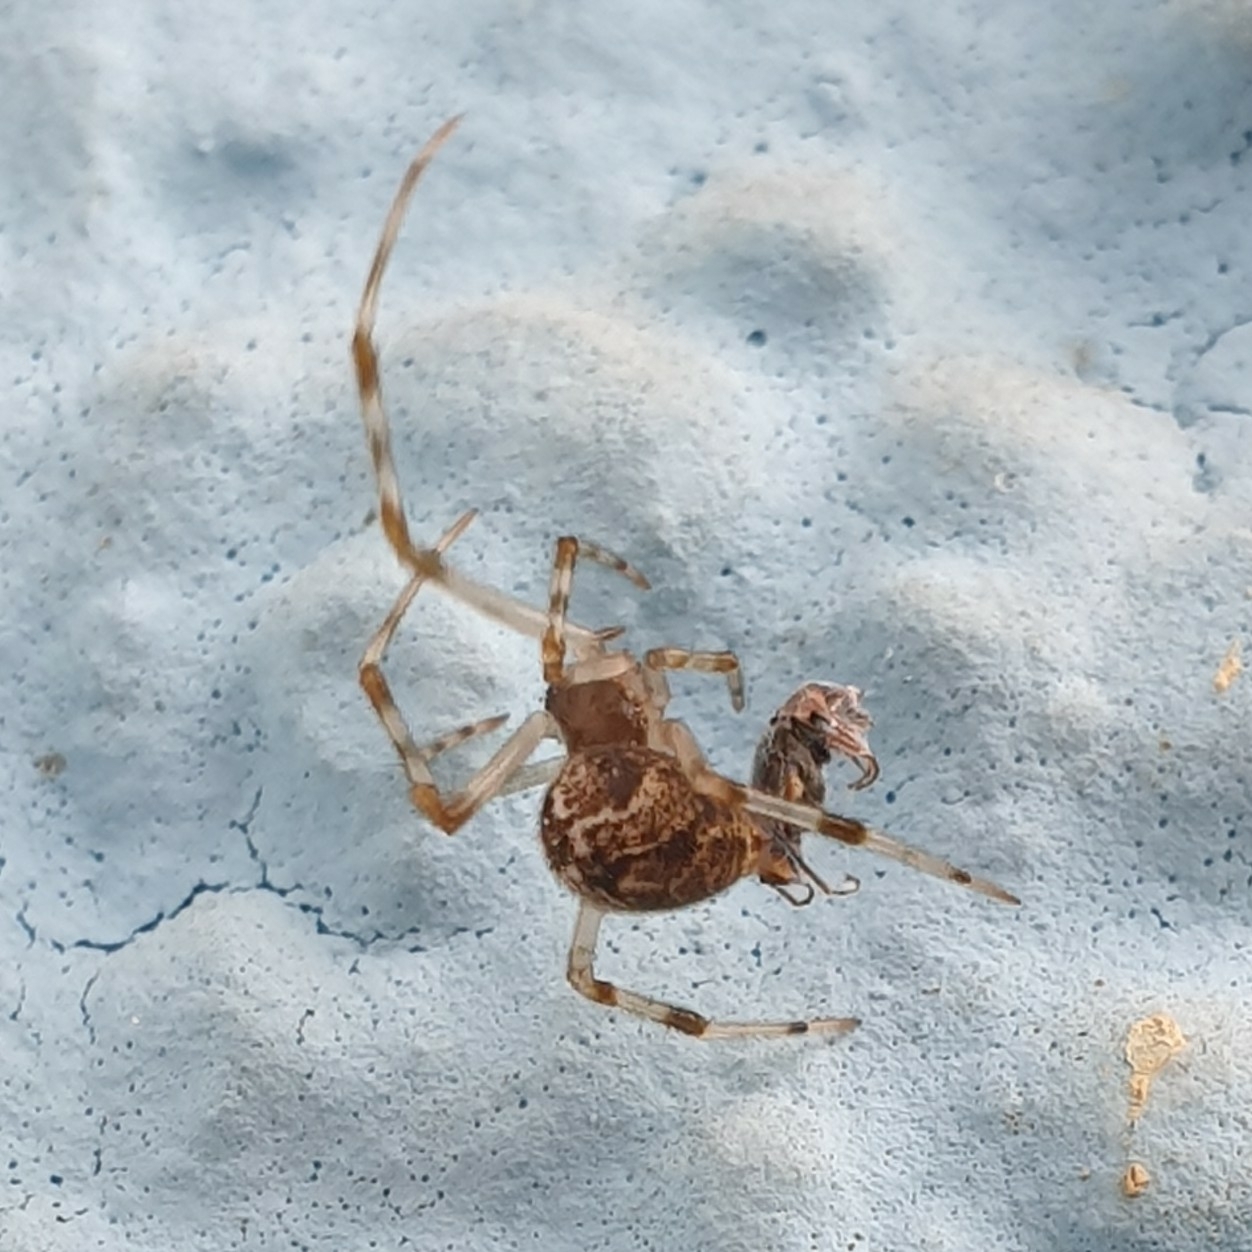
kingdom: Animalia
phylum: Arthropoda
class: Arachnida
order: Araneae
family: Theridiidae
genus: Parasteatoda
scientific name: Parasteatoda tepidariorum
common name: Common house spider
